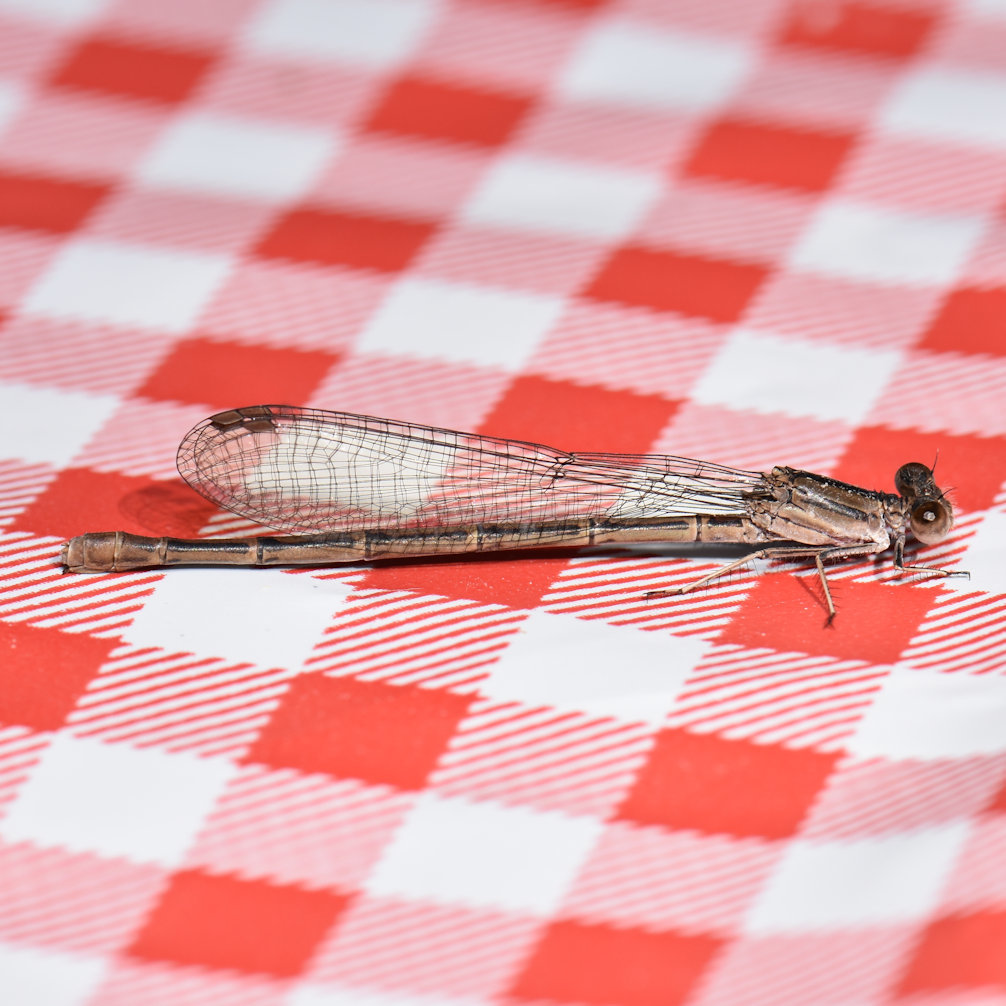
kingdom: Animalia
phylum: Arthropoda
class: Insecta
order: Odonata
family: Coenagrionidae
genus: Argia
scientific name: Argia fumipennis
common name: Variable dancer
